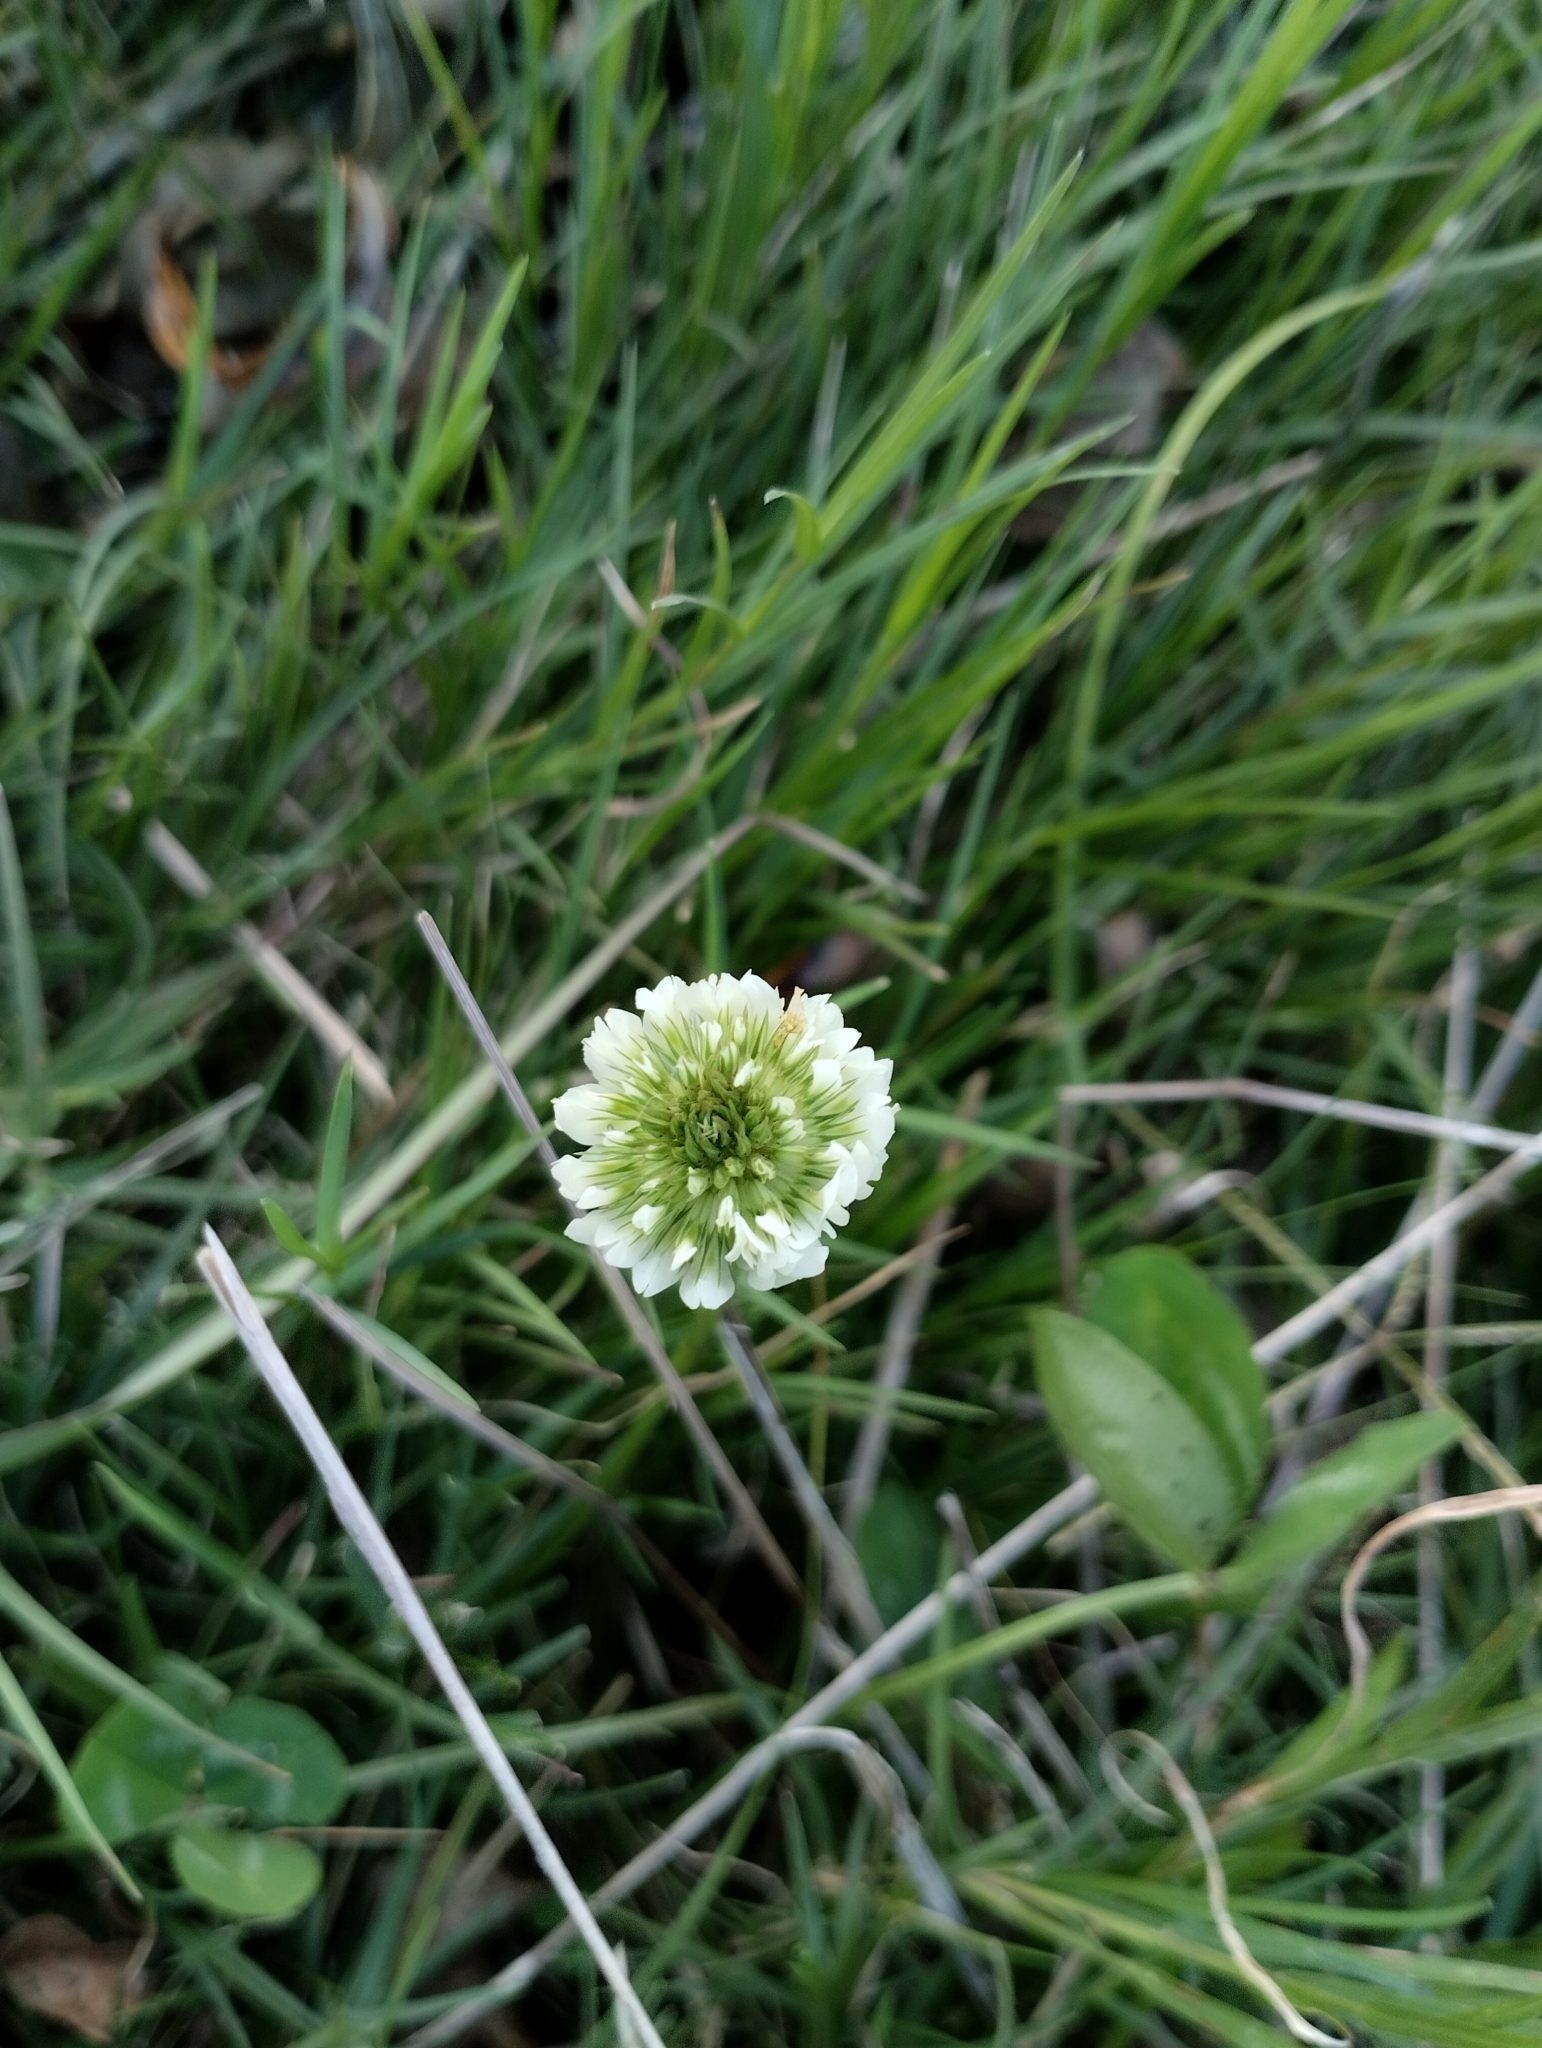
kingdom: Plantae
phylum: Tracheophyta
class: Magnoliopsida
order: Fabales
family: Fabaceae
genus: Trifolium
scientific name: Trifolium repens
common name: White clover
